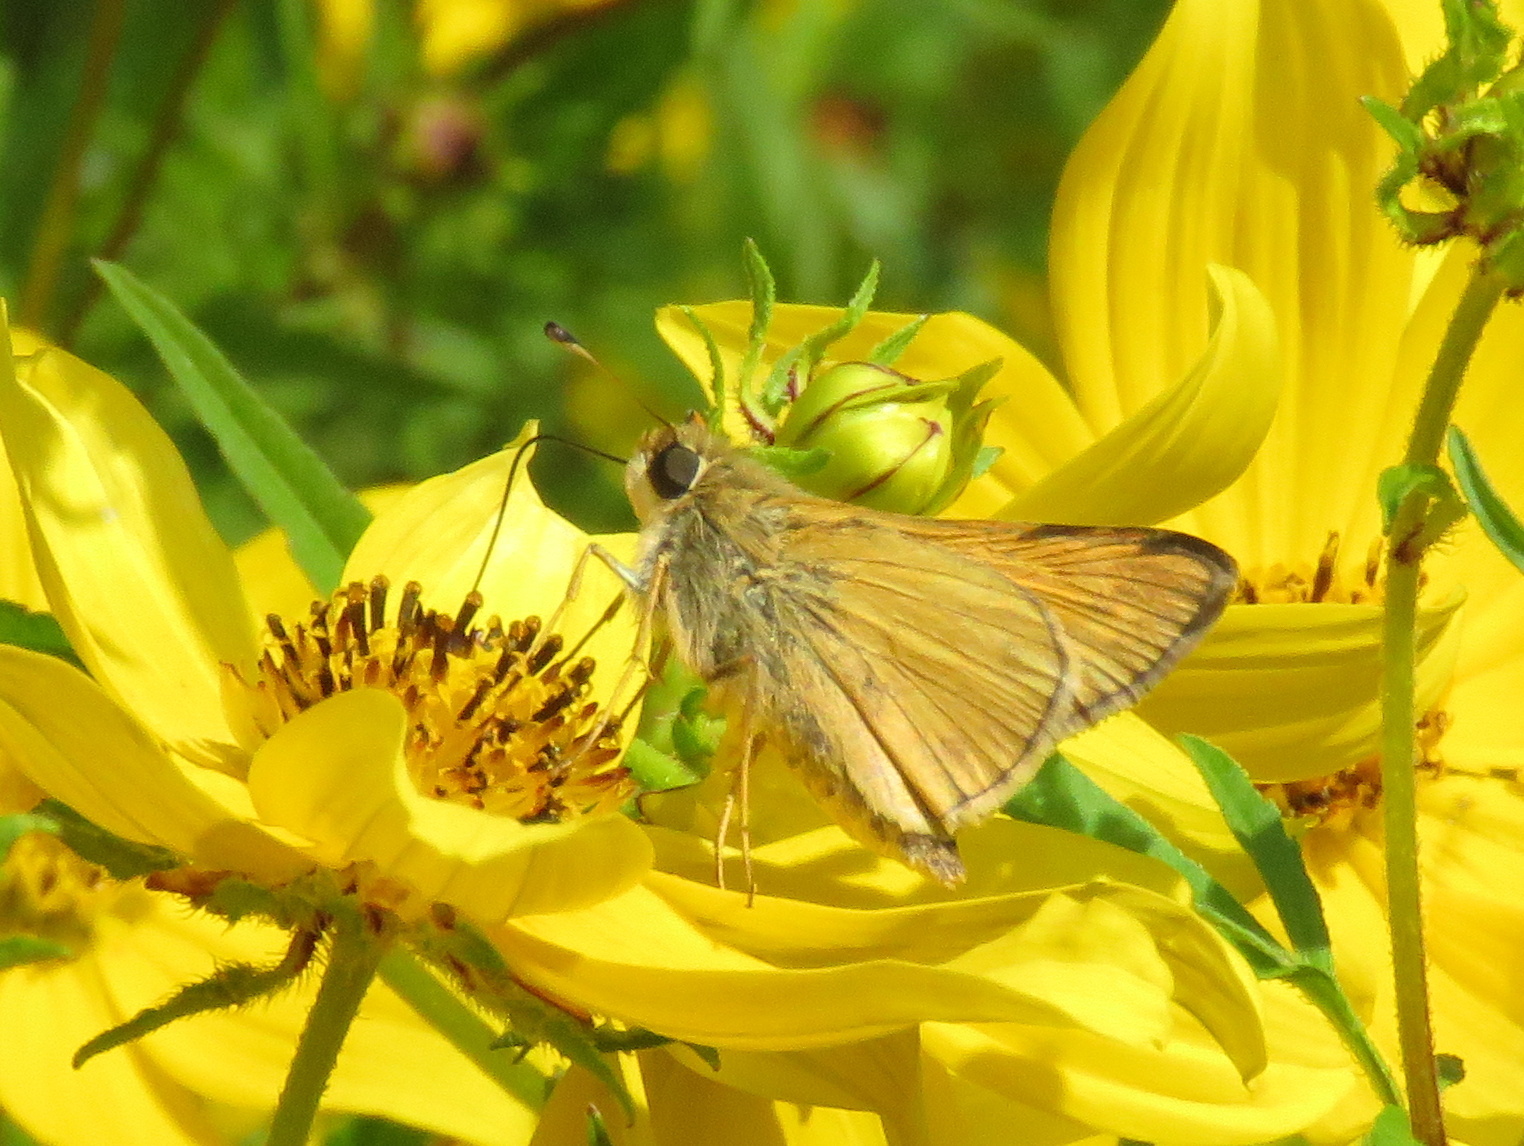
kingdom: Animalia
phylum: Arthropoda
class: Insecta
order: Lepidoptera
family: Hesperiidae
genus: Atalopedes
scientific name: Atalopedes
